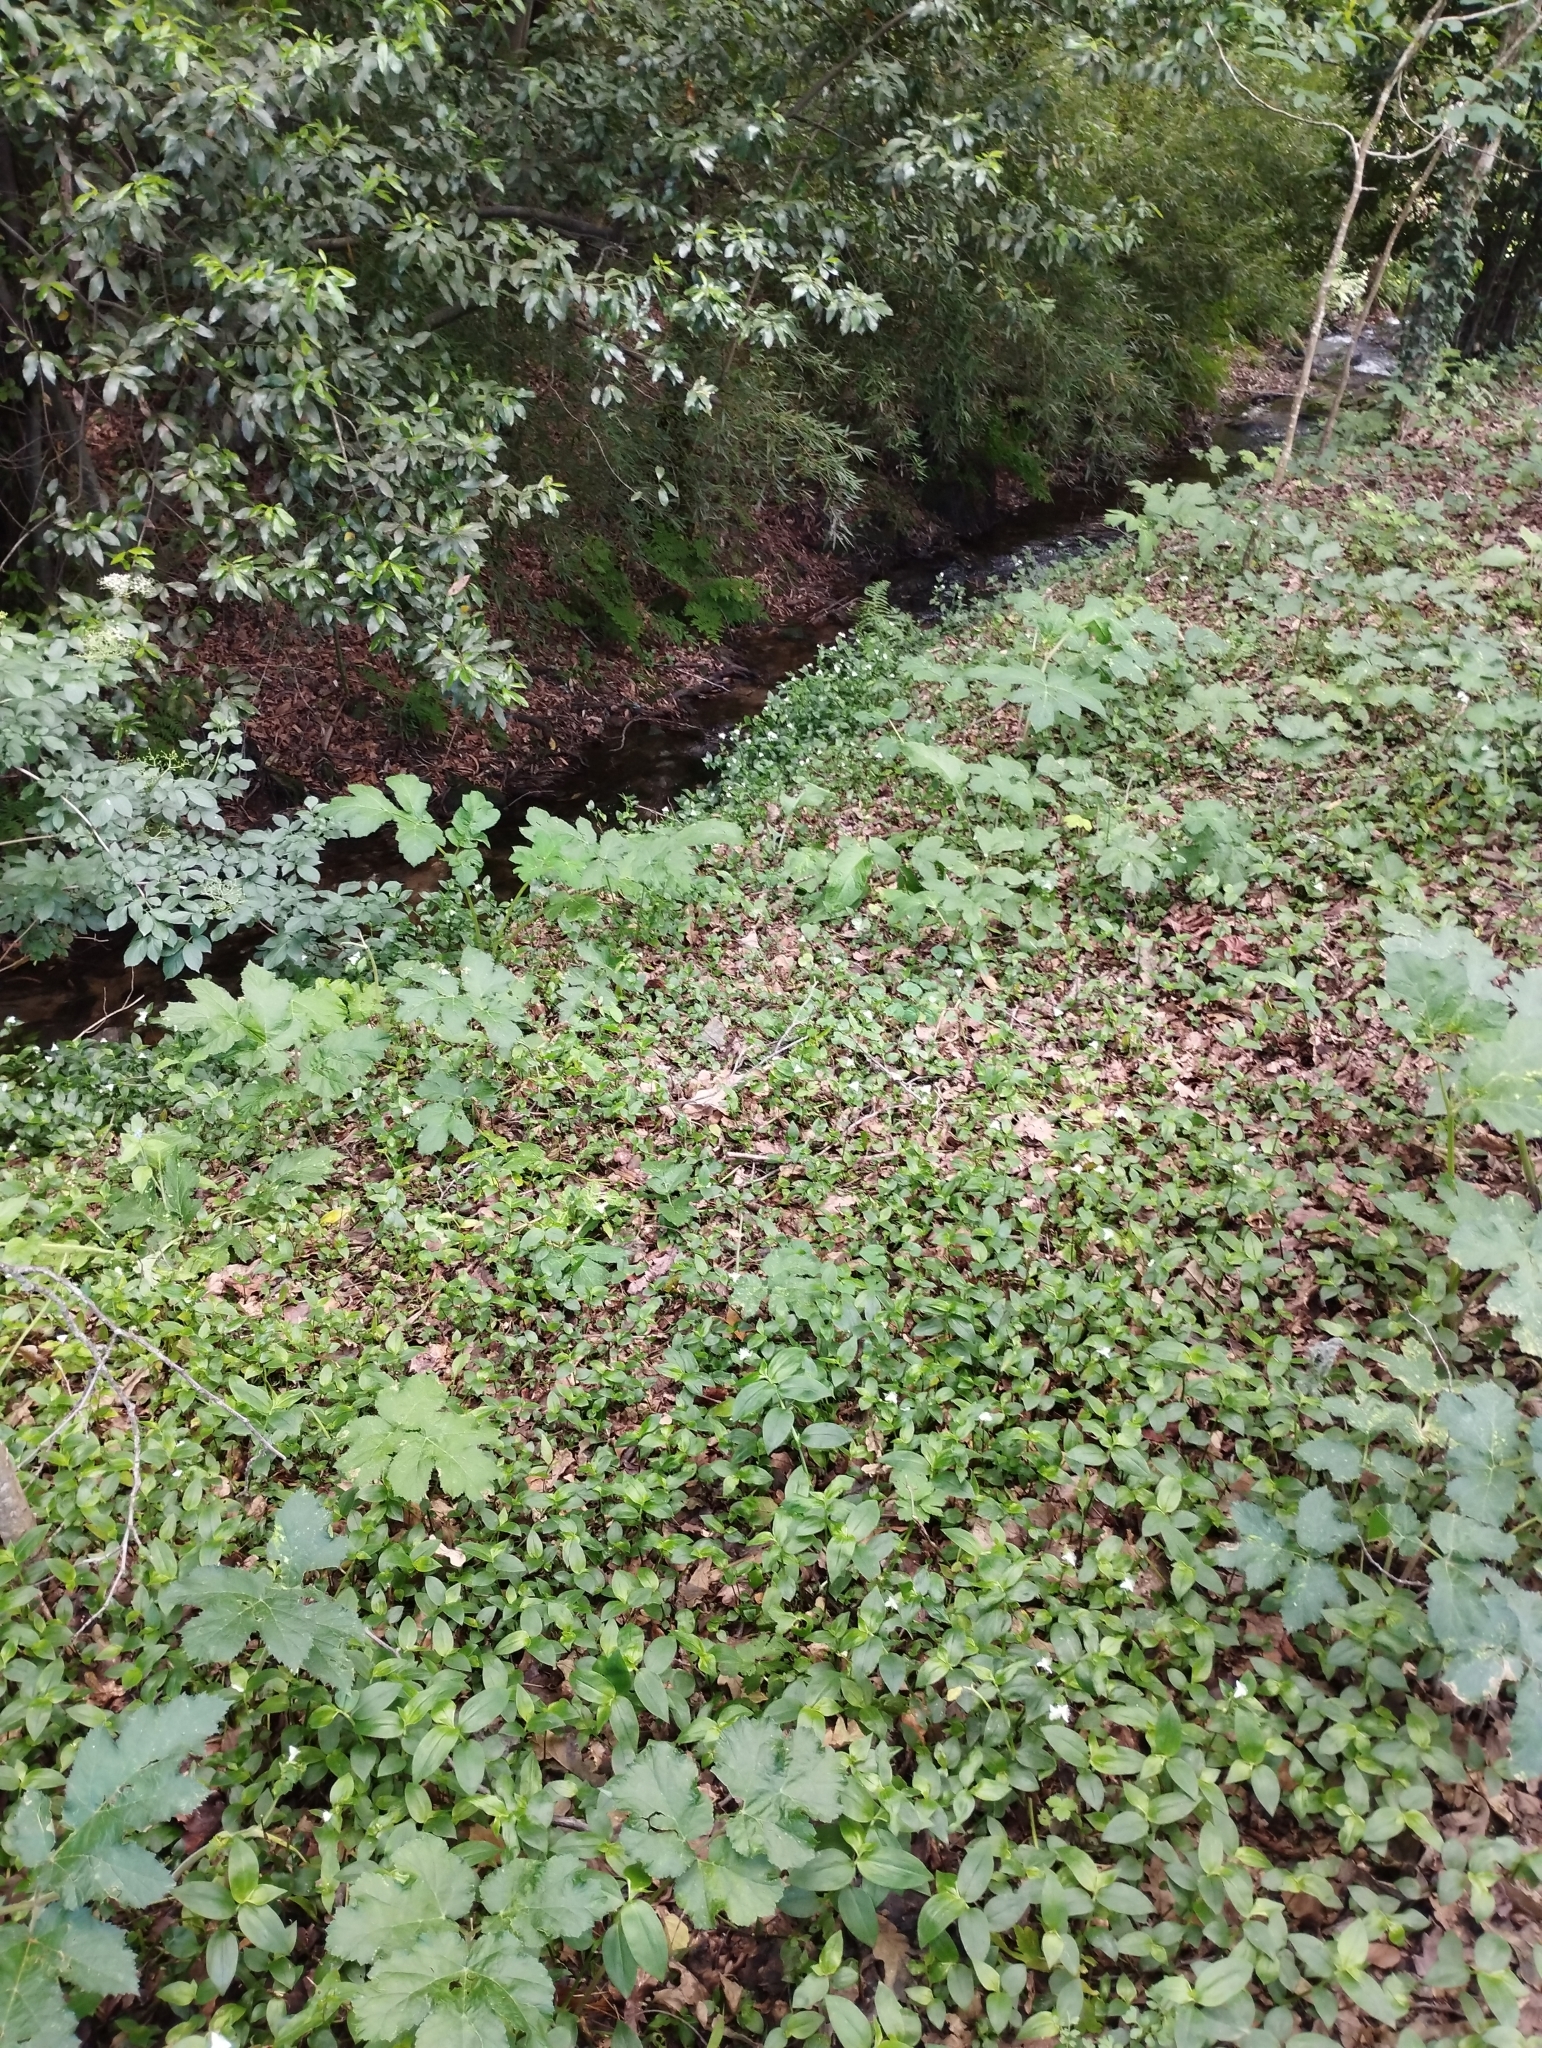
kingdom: Plantae
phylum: Tracheophyta
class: Liliopsida
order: Commelinales
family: Commelinaceae
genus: Tradescantia
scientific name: Tradescantia fluminensis
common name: Wandering-jew
